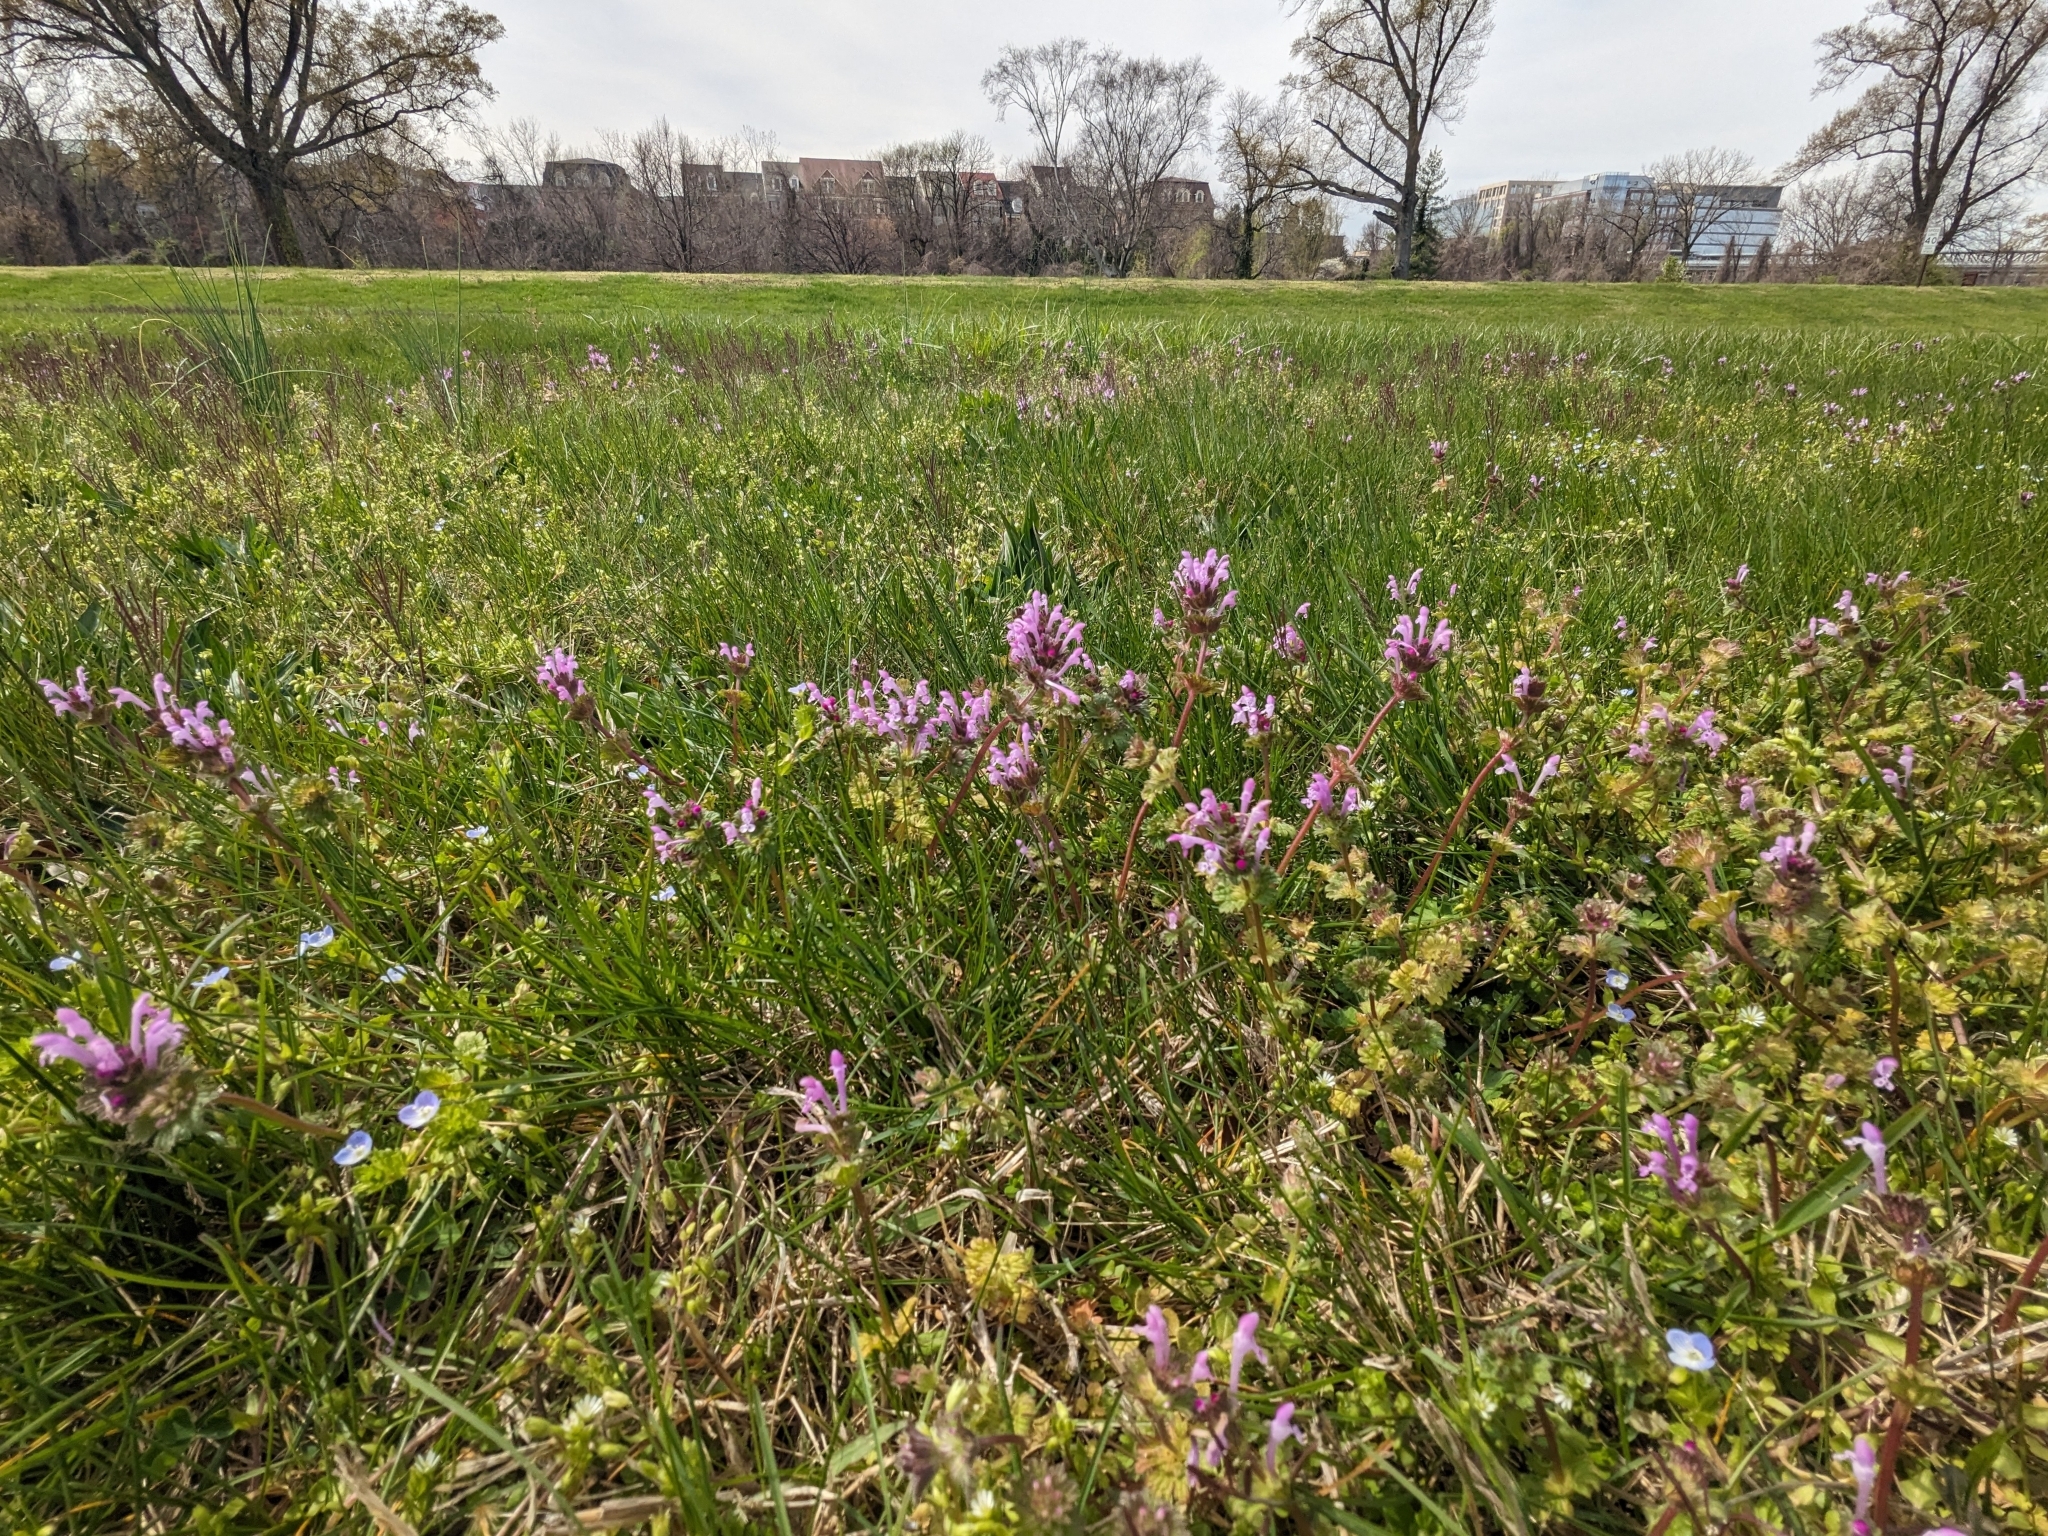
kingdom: Plantae
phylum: Tracheophyta
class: Magnoliopsida
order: Lamiales
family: Lamiaceae
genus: Lamium
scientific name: Lamium amplexicaule
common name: Henbit dead-nettle
